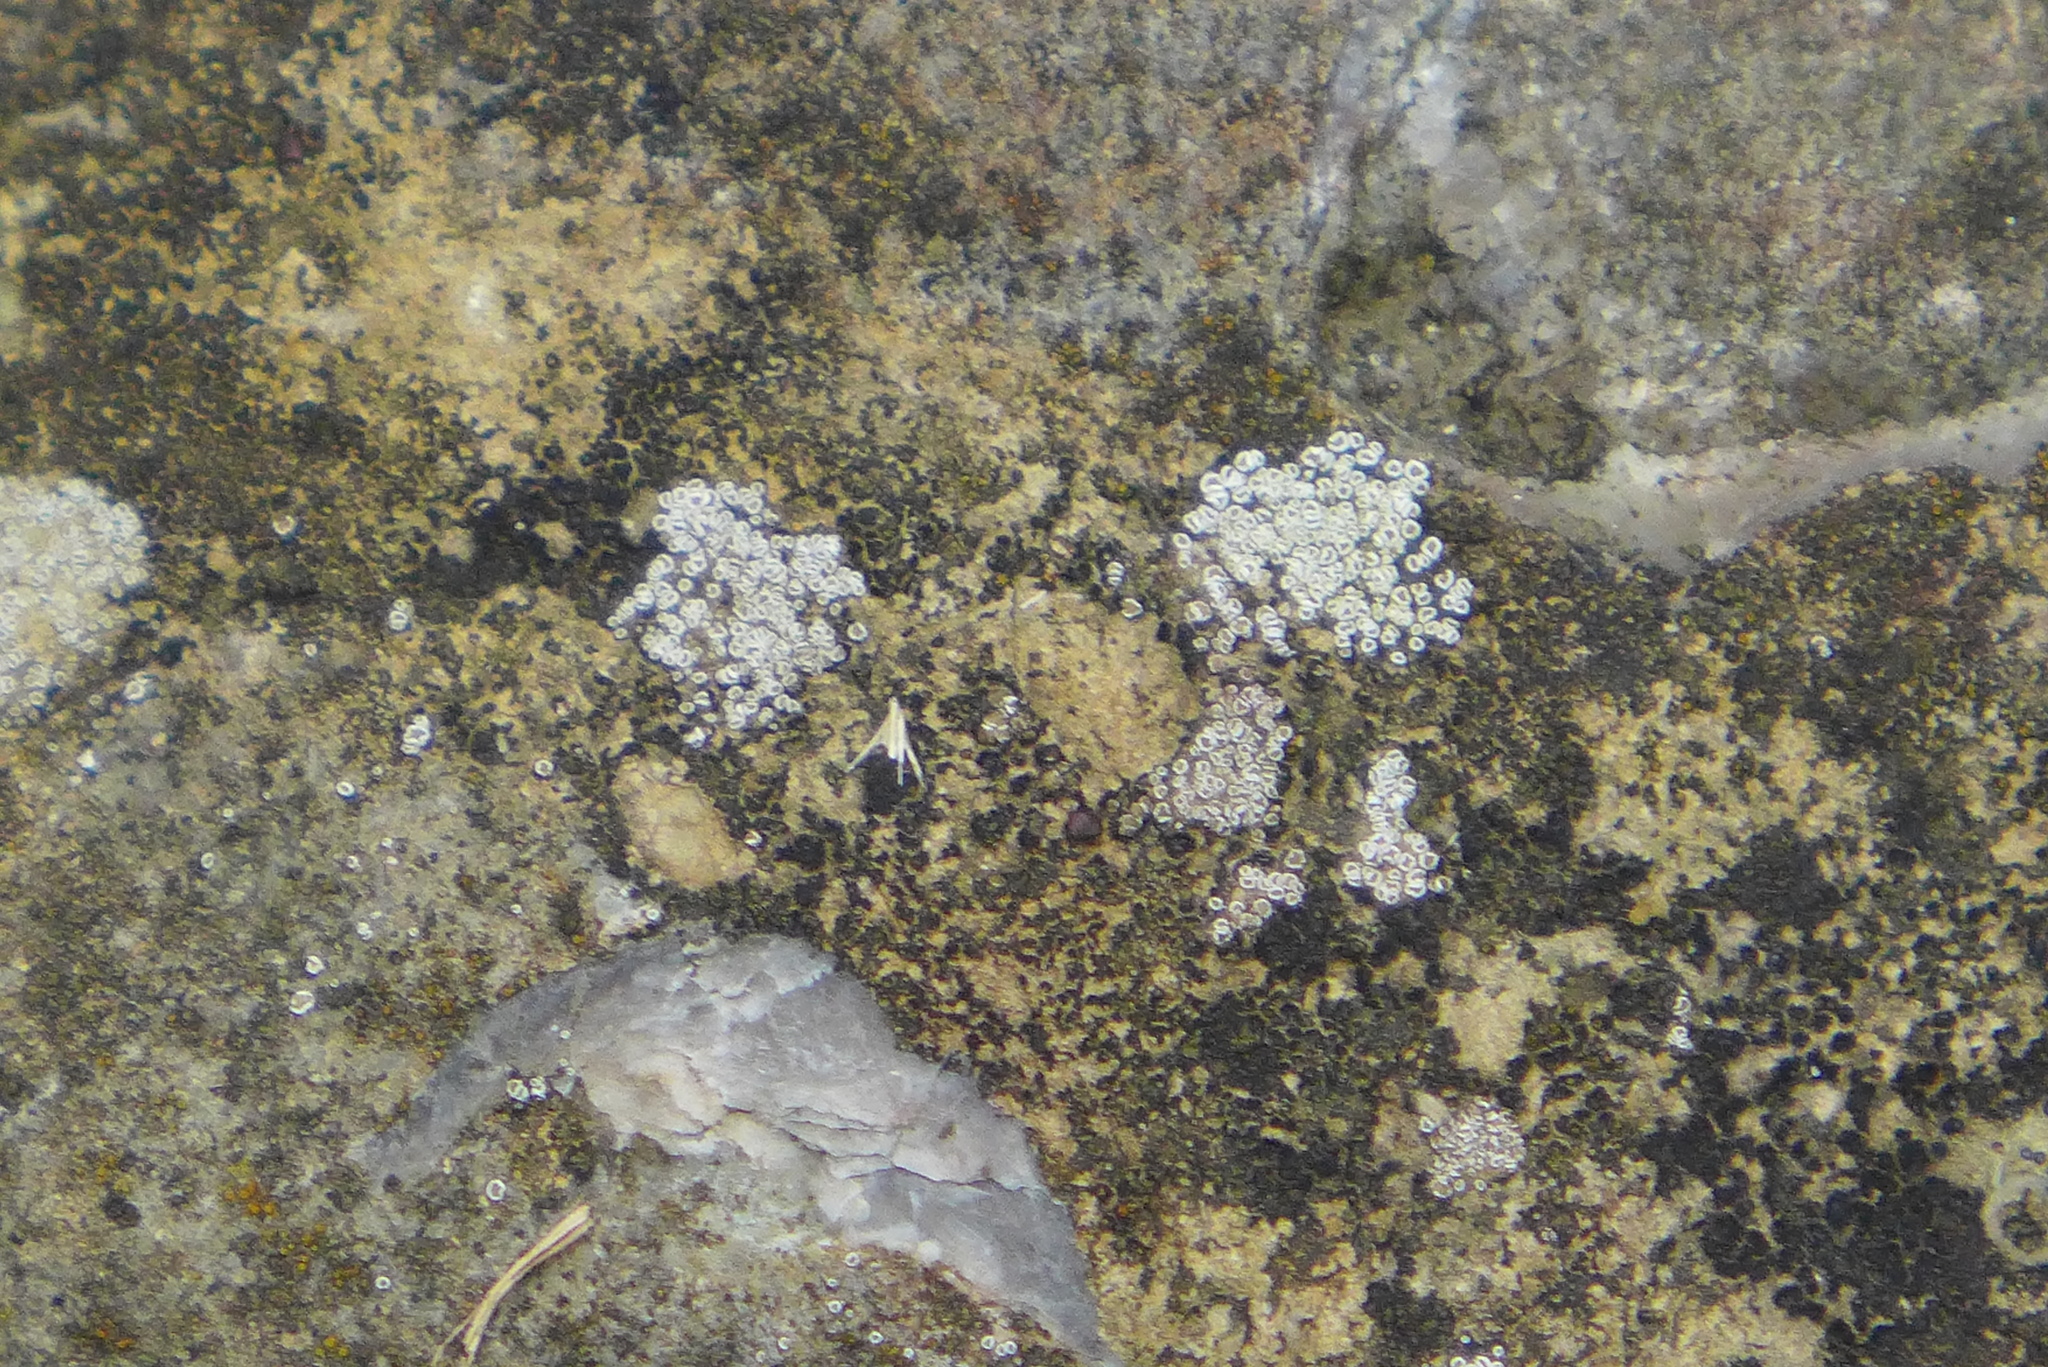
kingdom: Fungi
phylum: Ascomycota
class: Lecanoromycetes
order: Lecanorales
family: Lecanoraceae
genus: Polyozosia
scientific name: Polyozosia dispersa
